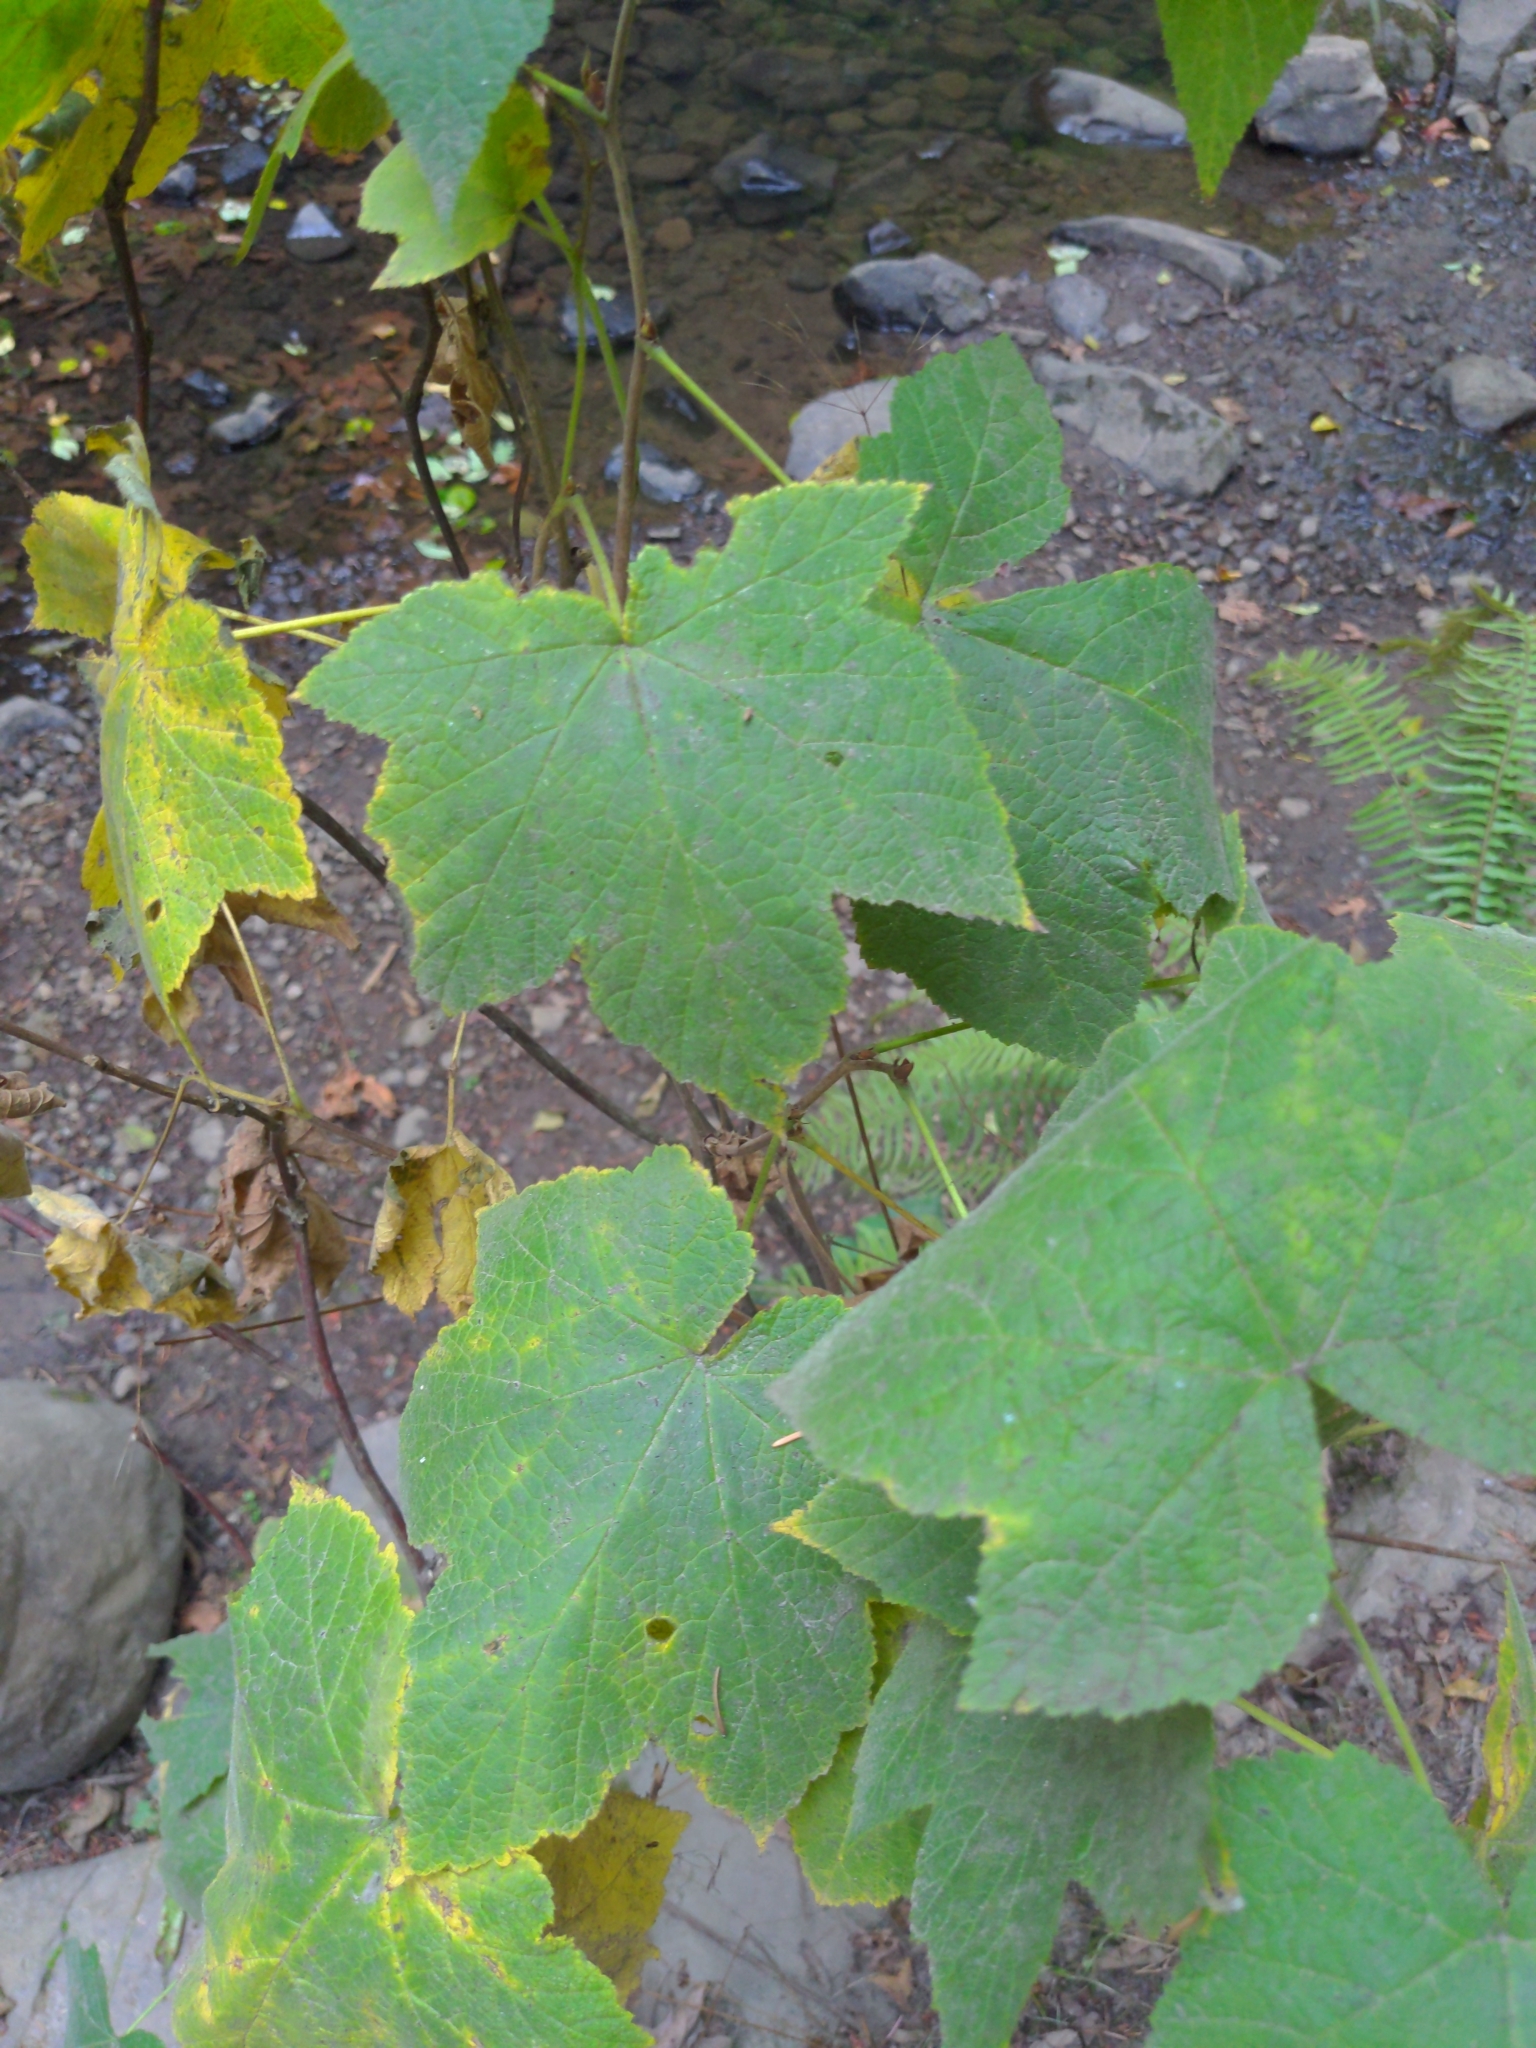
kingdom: Plantae
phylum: Tracheophyta
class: Magnoliopsida
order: Rosales
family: Rosaceae
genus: Rubus
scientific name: Rubus parviflorus
